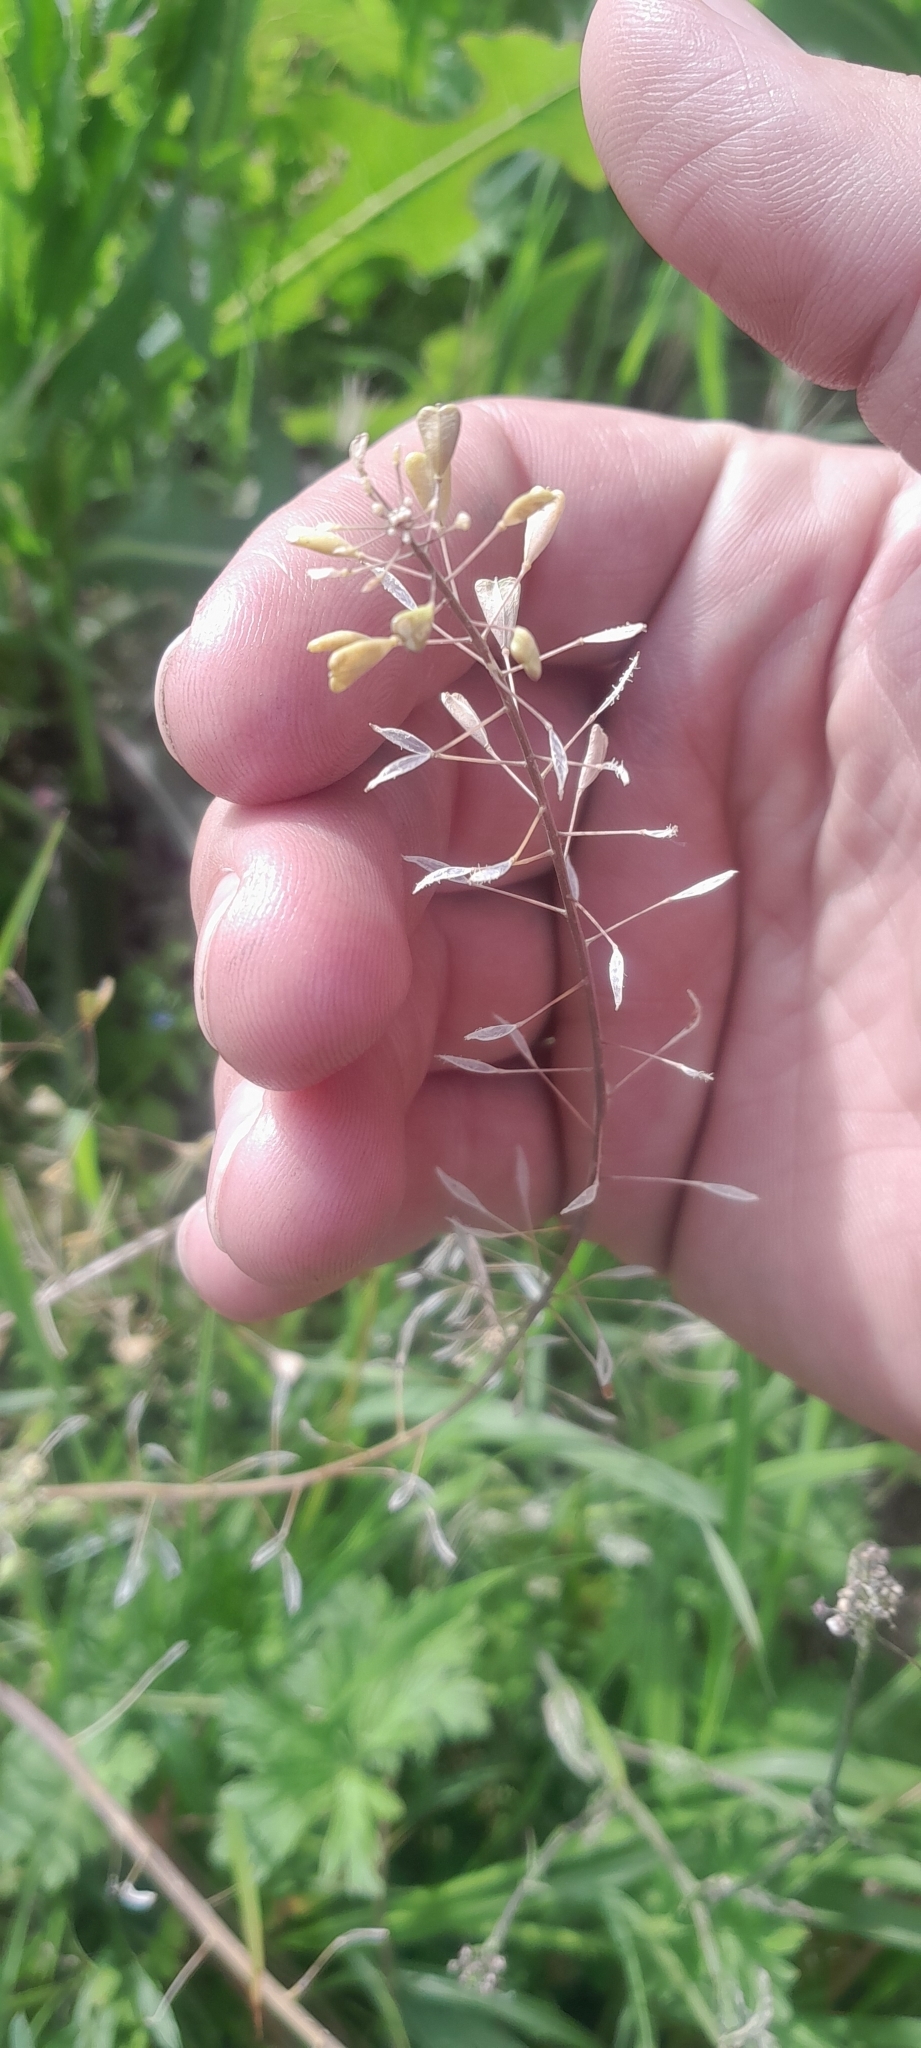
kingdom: Plantae
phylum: Tracheophyta
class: Magnoliopsida
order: Brassicales
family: Brassicaceae
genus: Capsella
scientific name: Capsella bursa-pastoris
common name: Shepherd's purse
